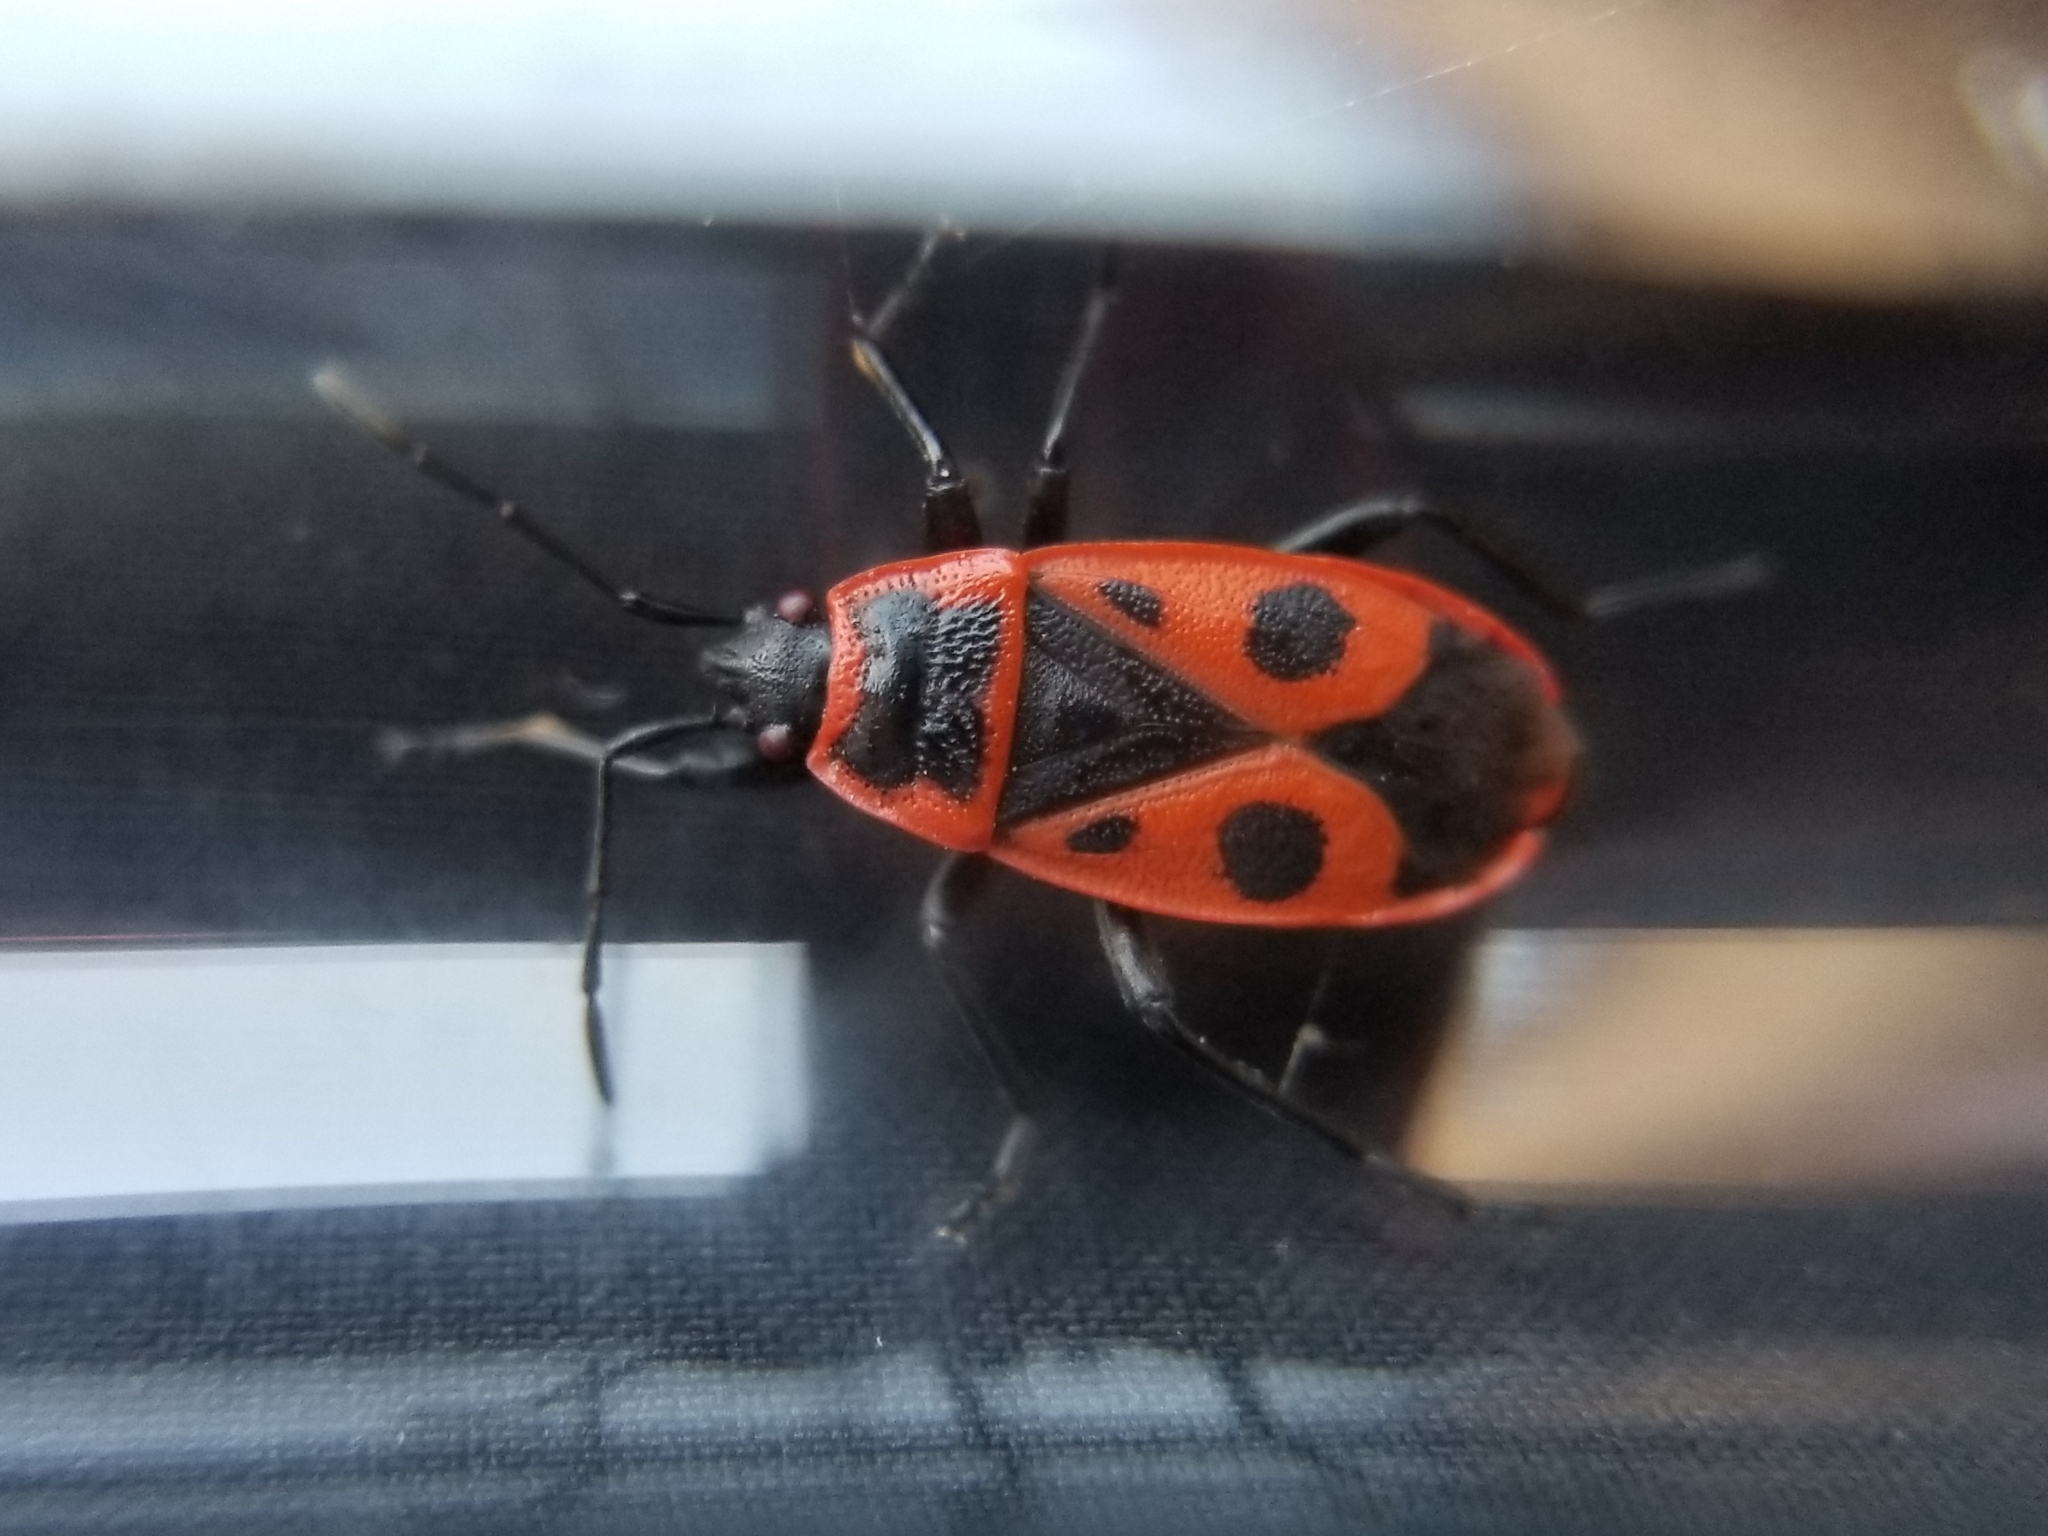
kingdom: Animalia
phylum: Arthropoda
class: Insecta
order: Hemiptera
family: Pyrrhocoridae
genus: Pyrrhocoris
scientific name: Pyrrhocoris apterus
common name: Firebug
